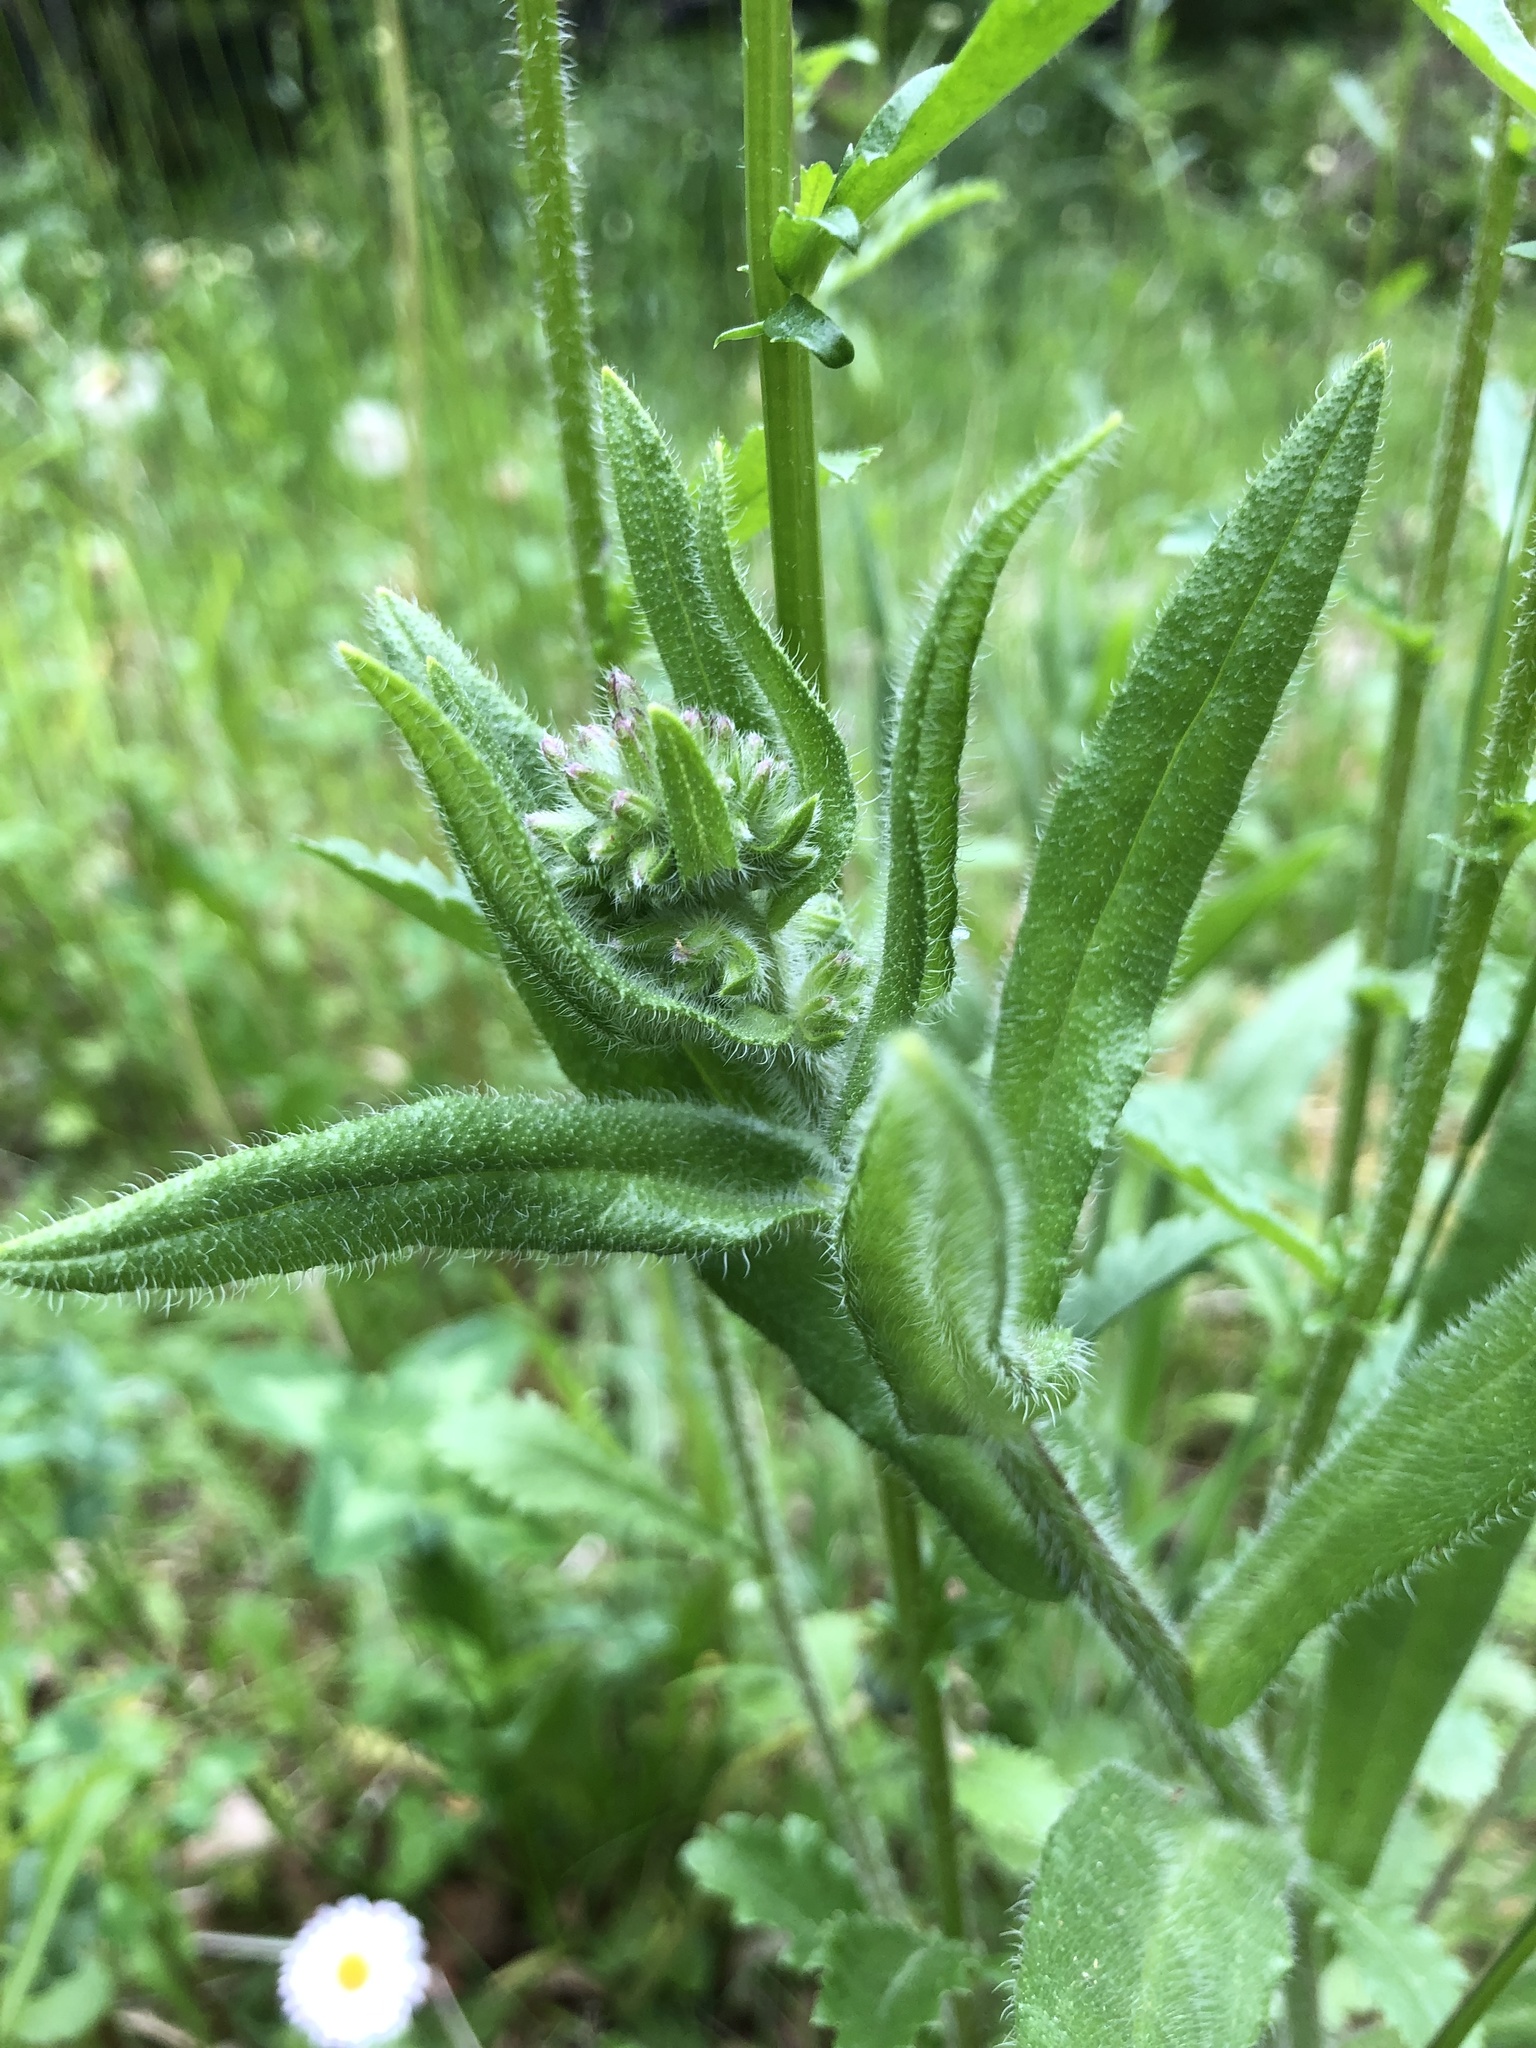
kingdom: Plantae
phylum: Tracheophyta
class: Magnoliopsida
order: Boraginales
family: Boraginaceae
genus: Anchusa
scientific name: Anchusa officinalis
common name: Alkanet
